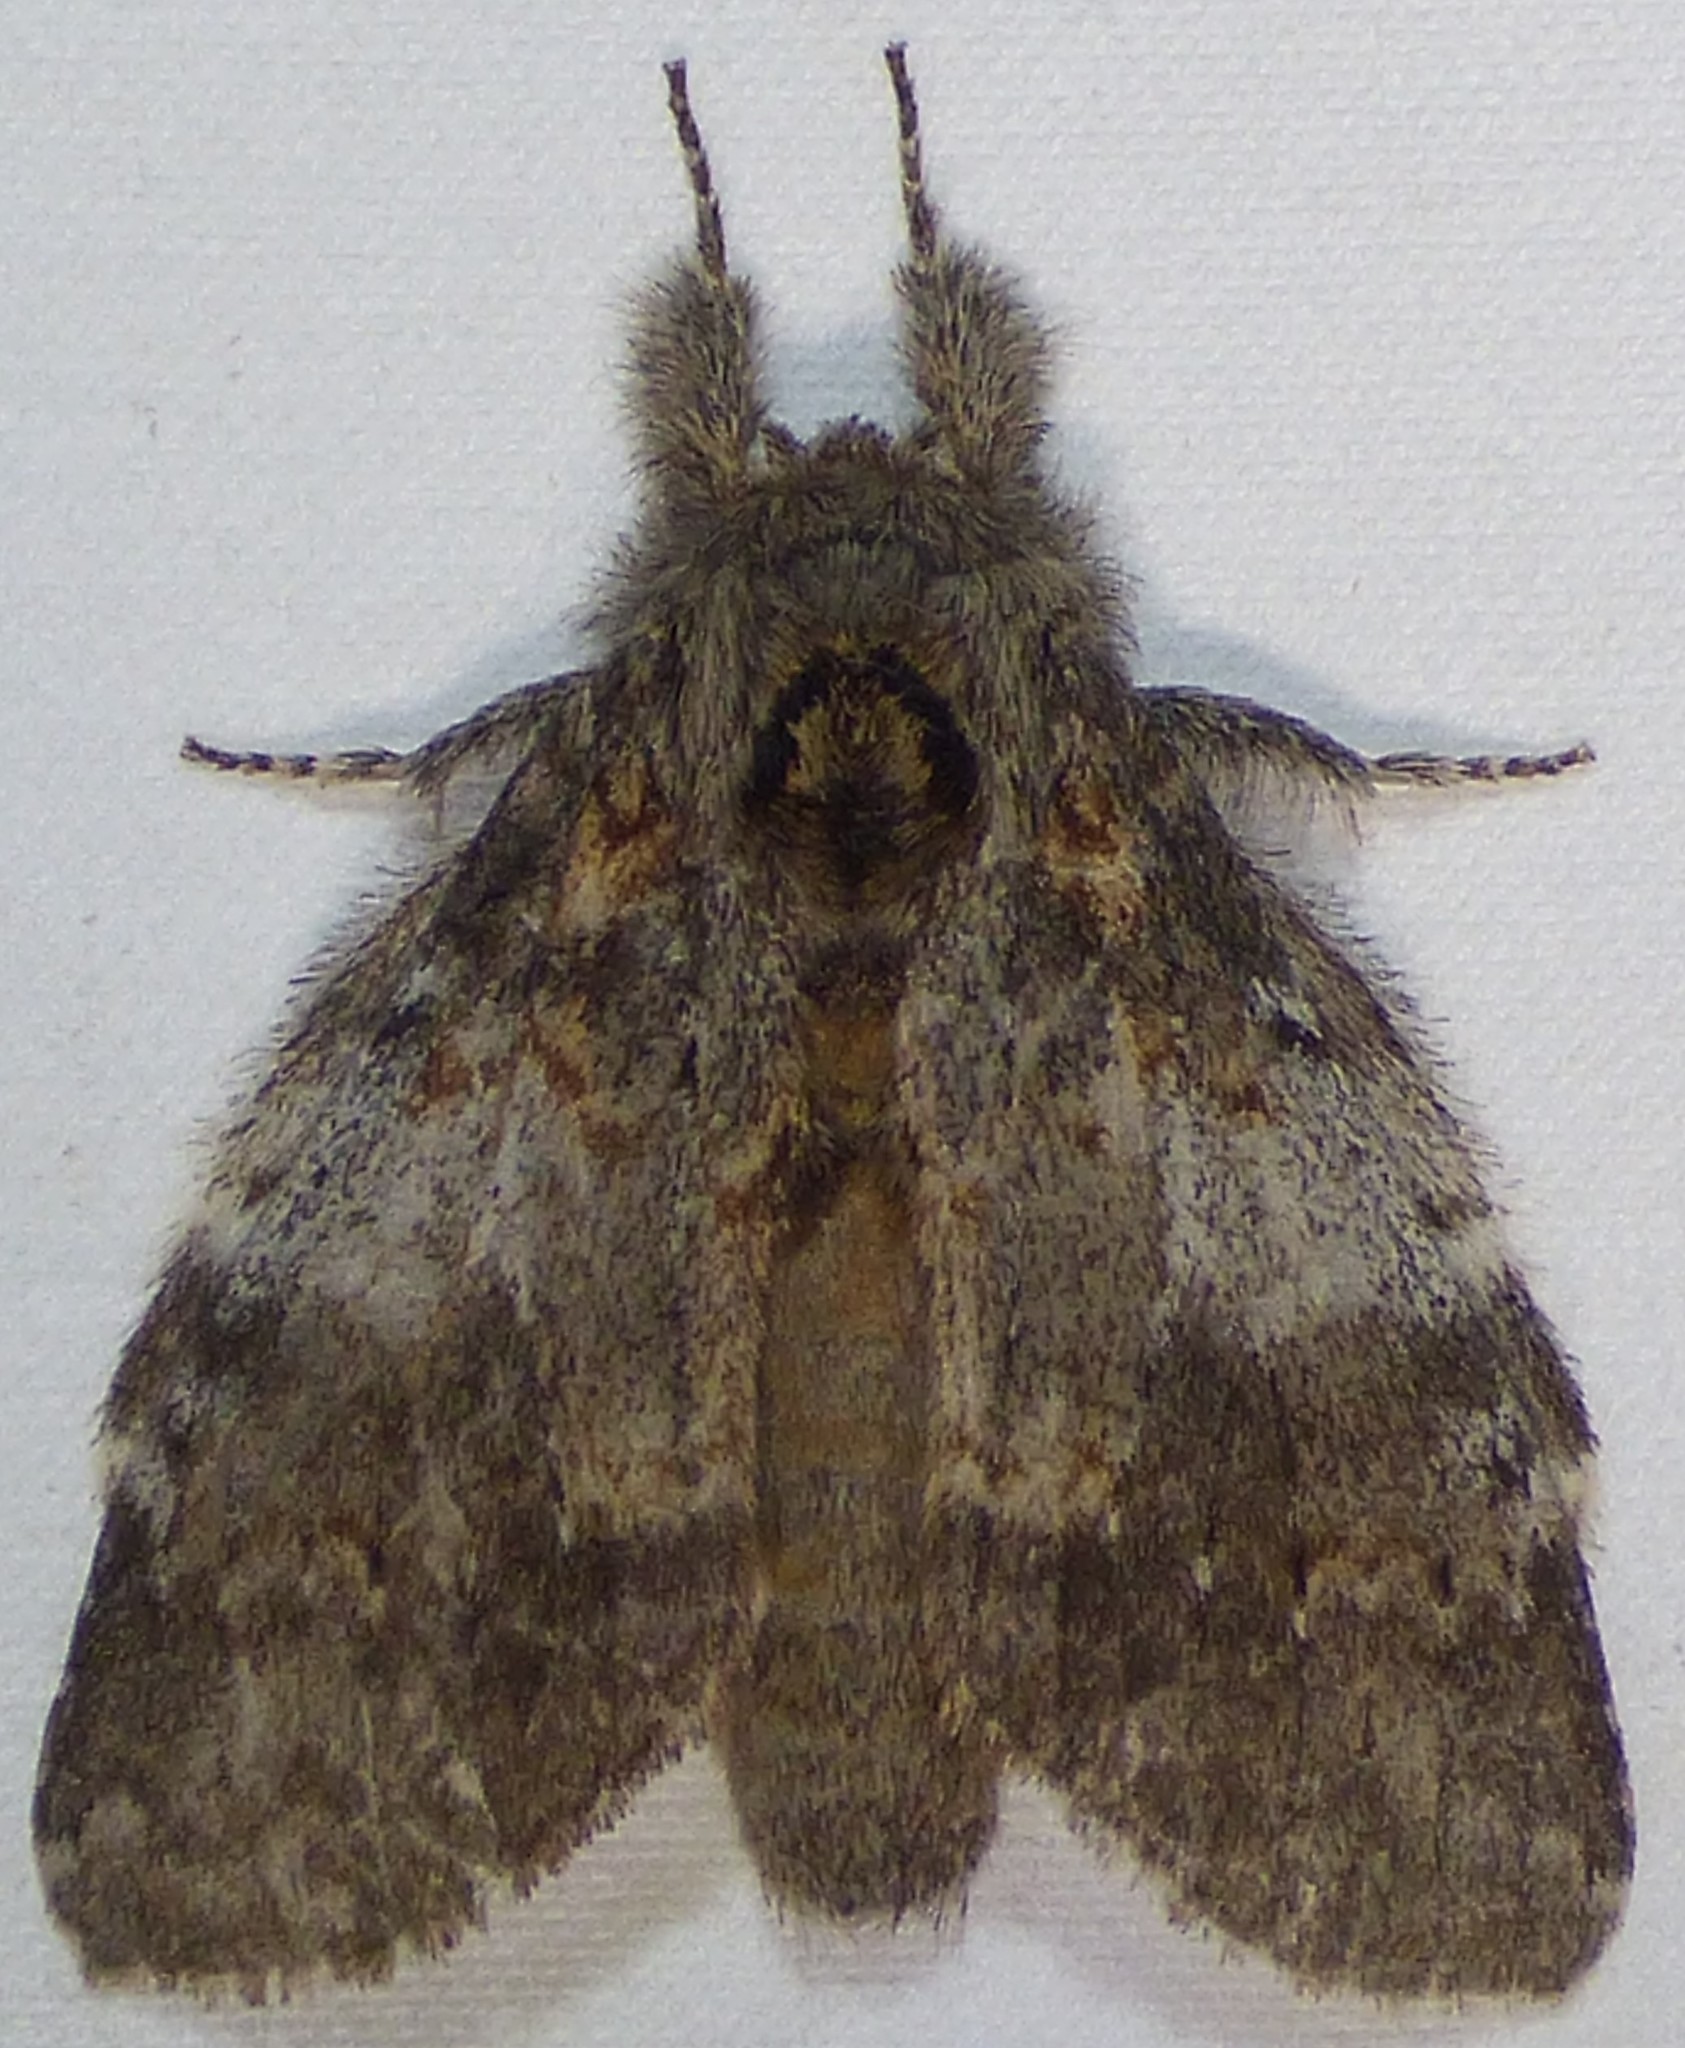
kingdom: Animalia
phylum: Arthropoda
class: Insecta
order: Lepidoptera
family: Notodontidae
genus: Peridea
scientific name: Peridea angulosa
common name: Angulose prominent
